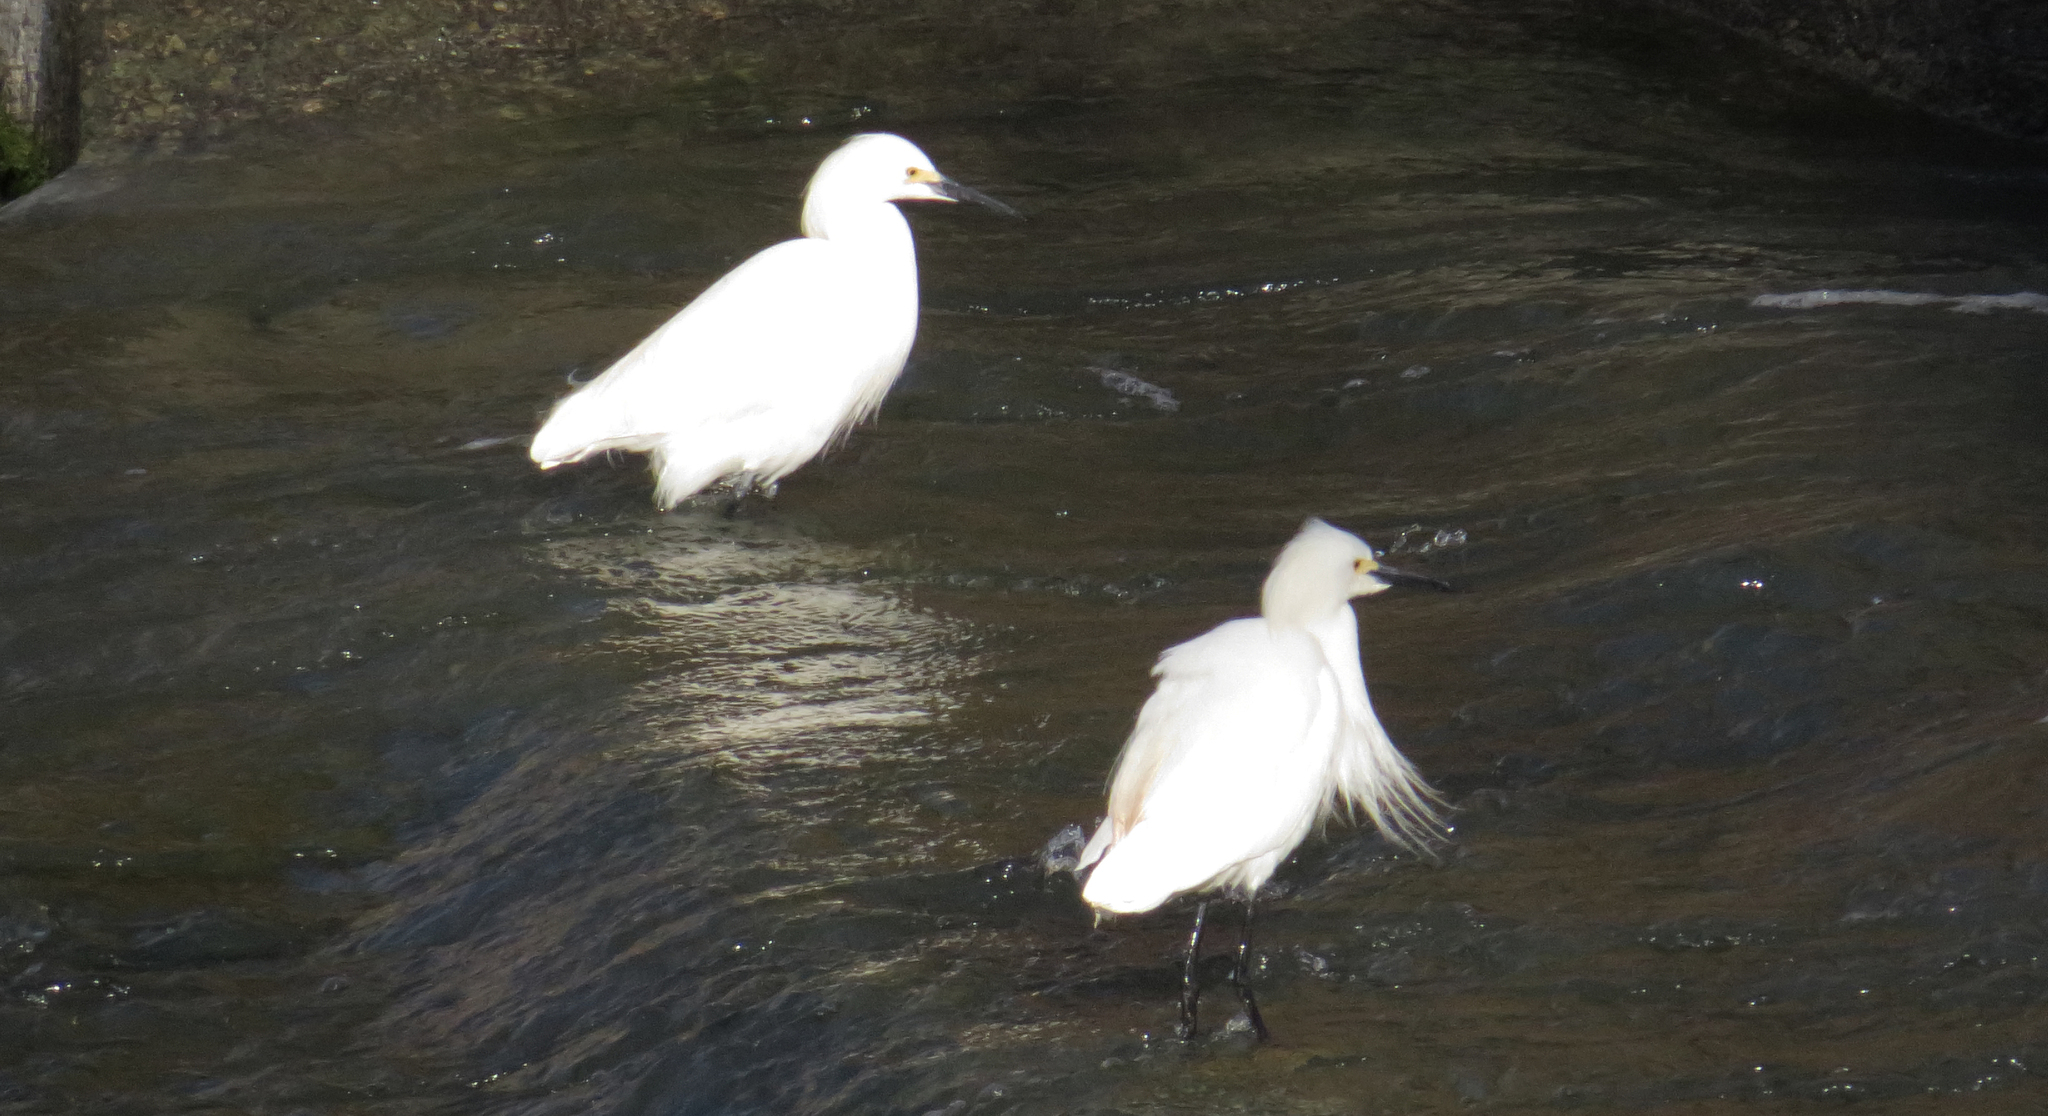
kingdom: Animalia
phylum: Chordata
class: Aves
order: Pelecaniformes
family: Ardeidae
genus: Egretta
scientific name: Egretta thula
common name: Snowy egret
